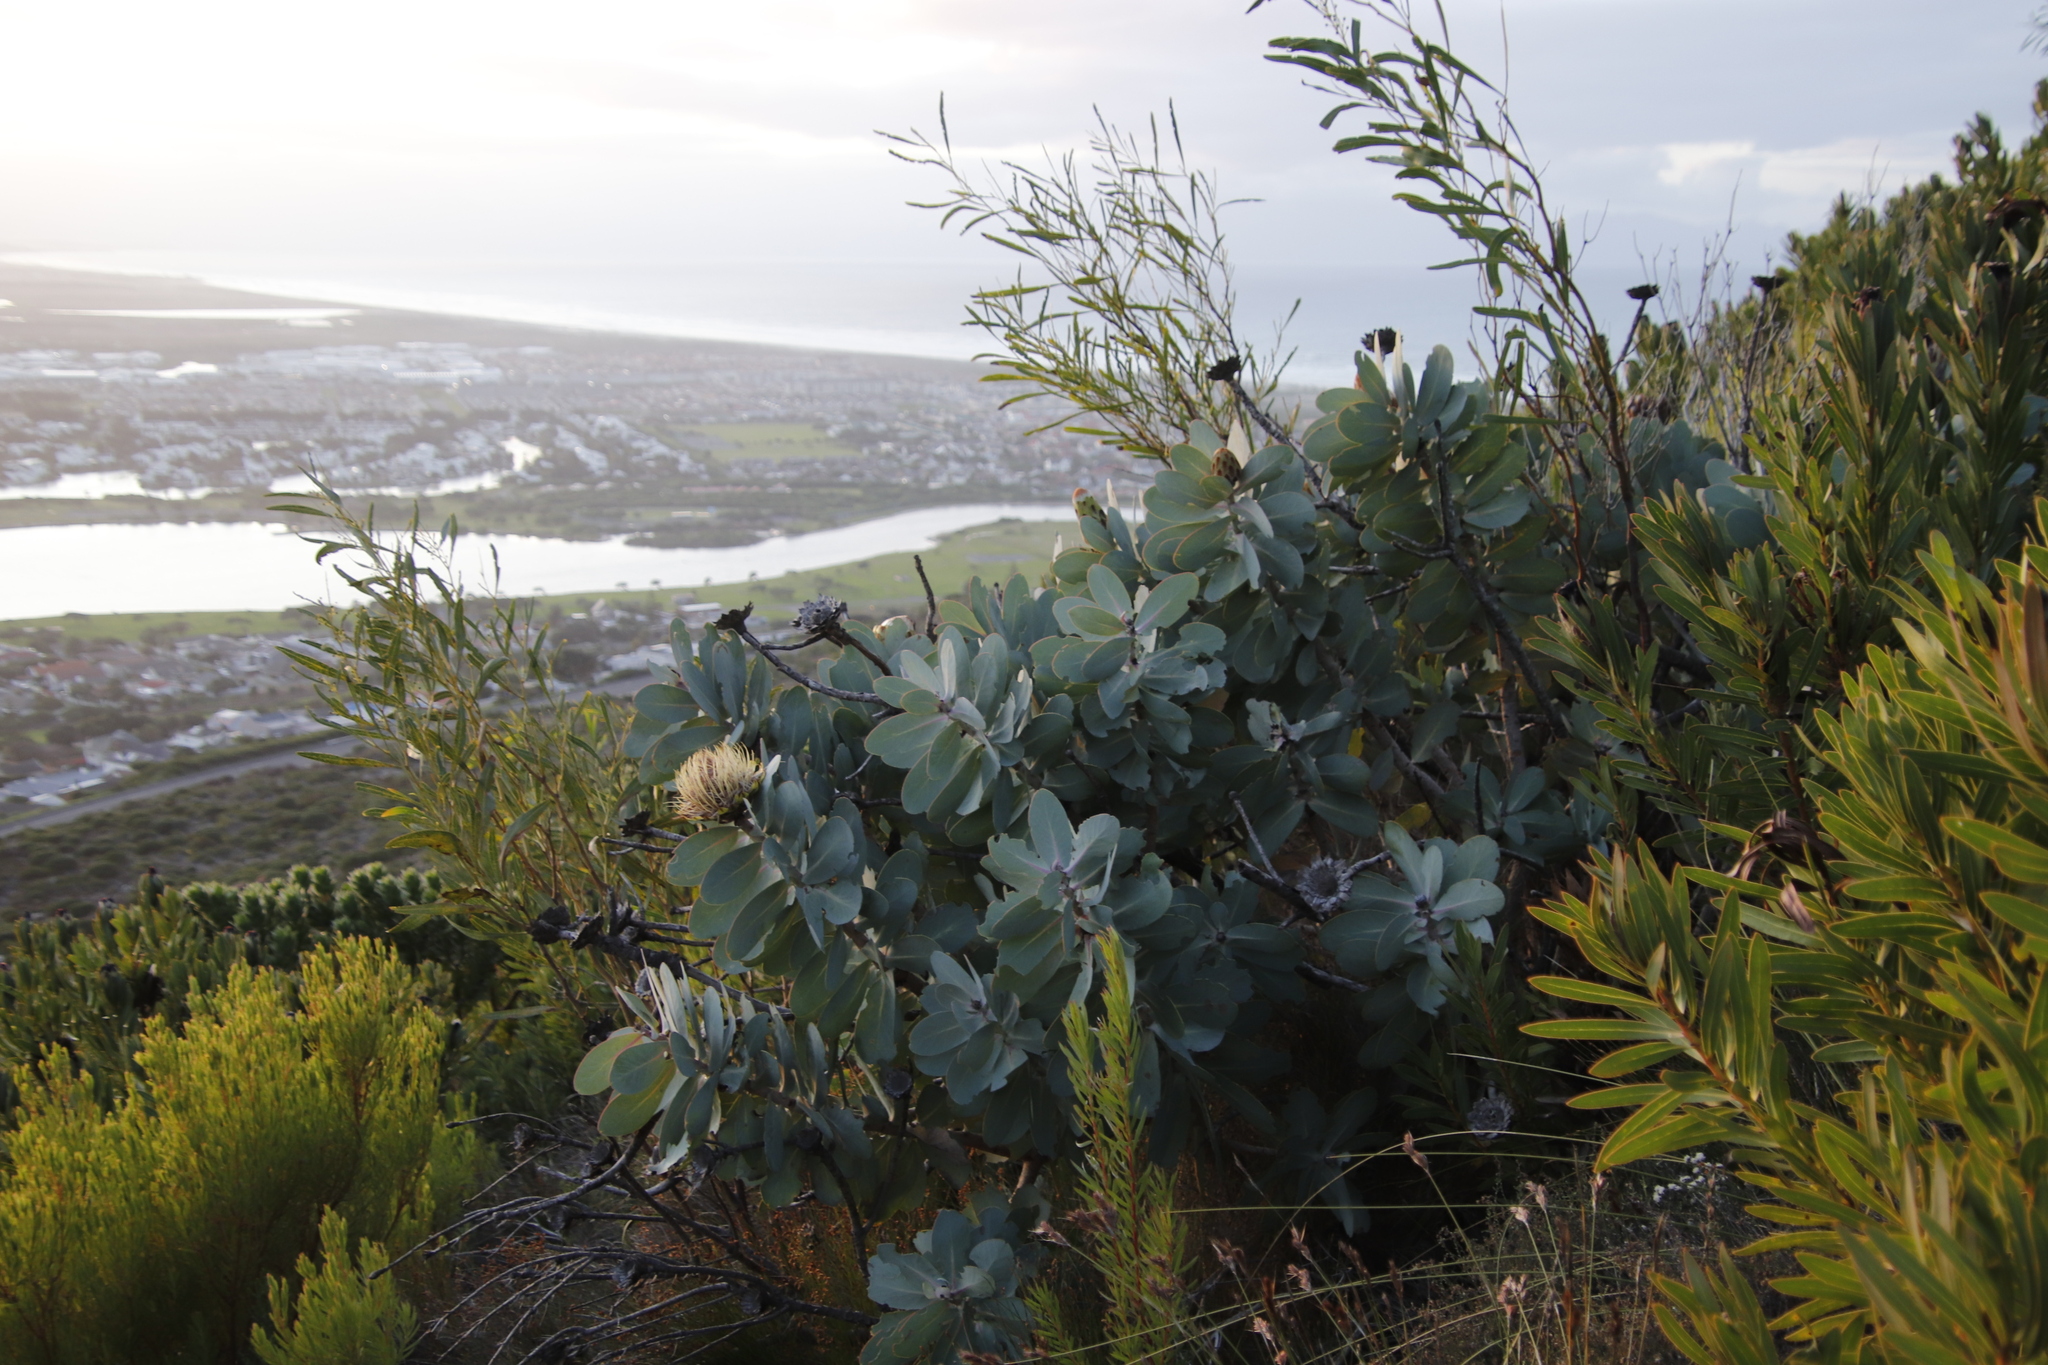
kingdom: Plantae
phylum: Tracheophyta
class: Magnoliopsida
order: Fabales
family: Fabaceae
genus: Acacia
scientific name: Acacia saligna
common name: Orange wattle
